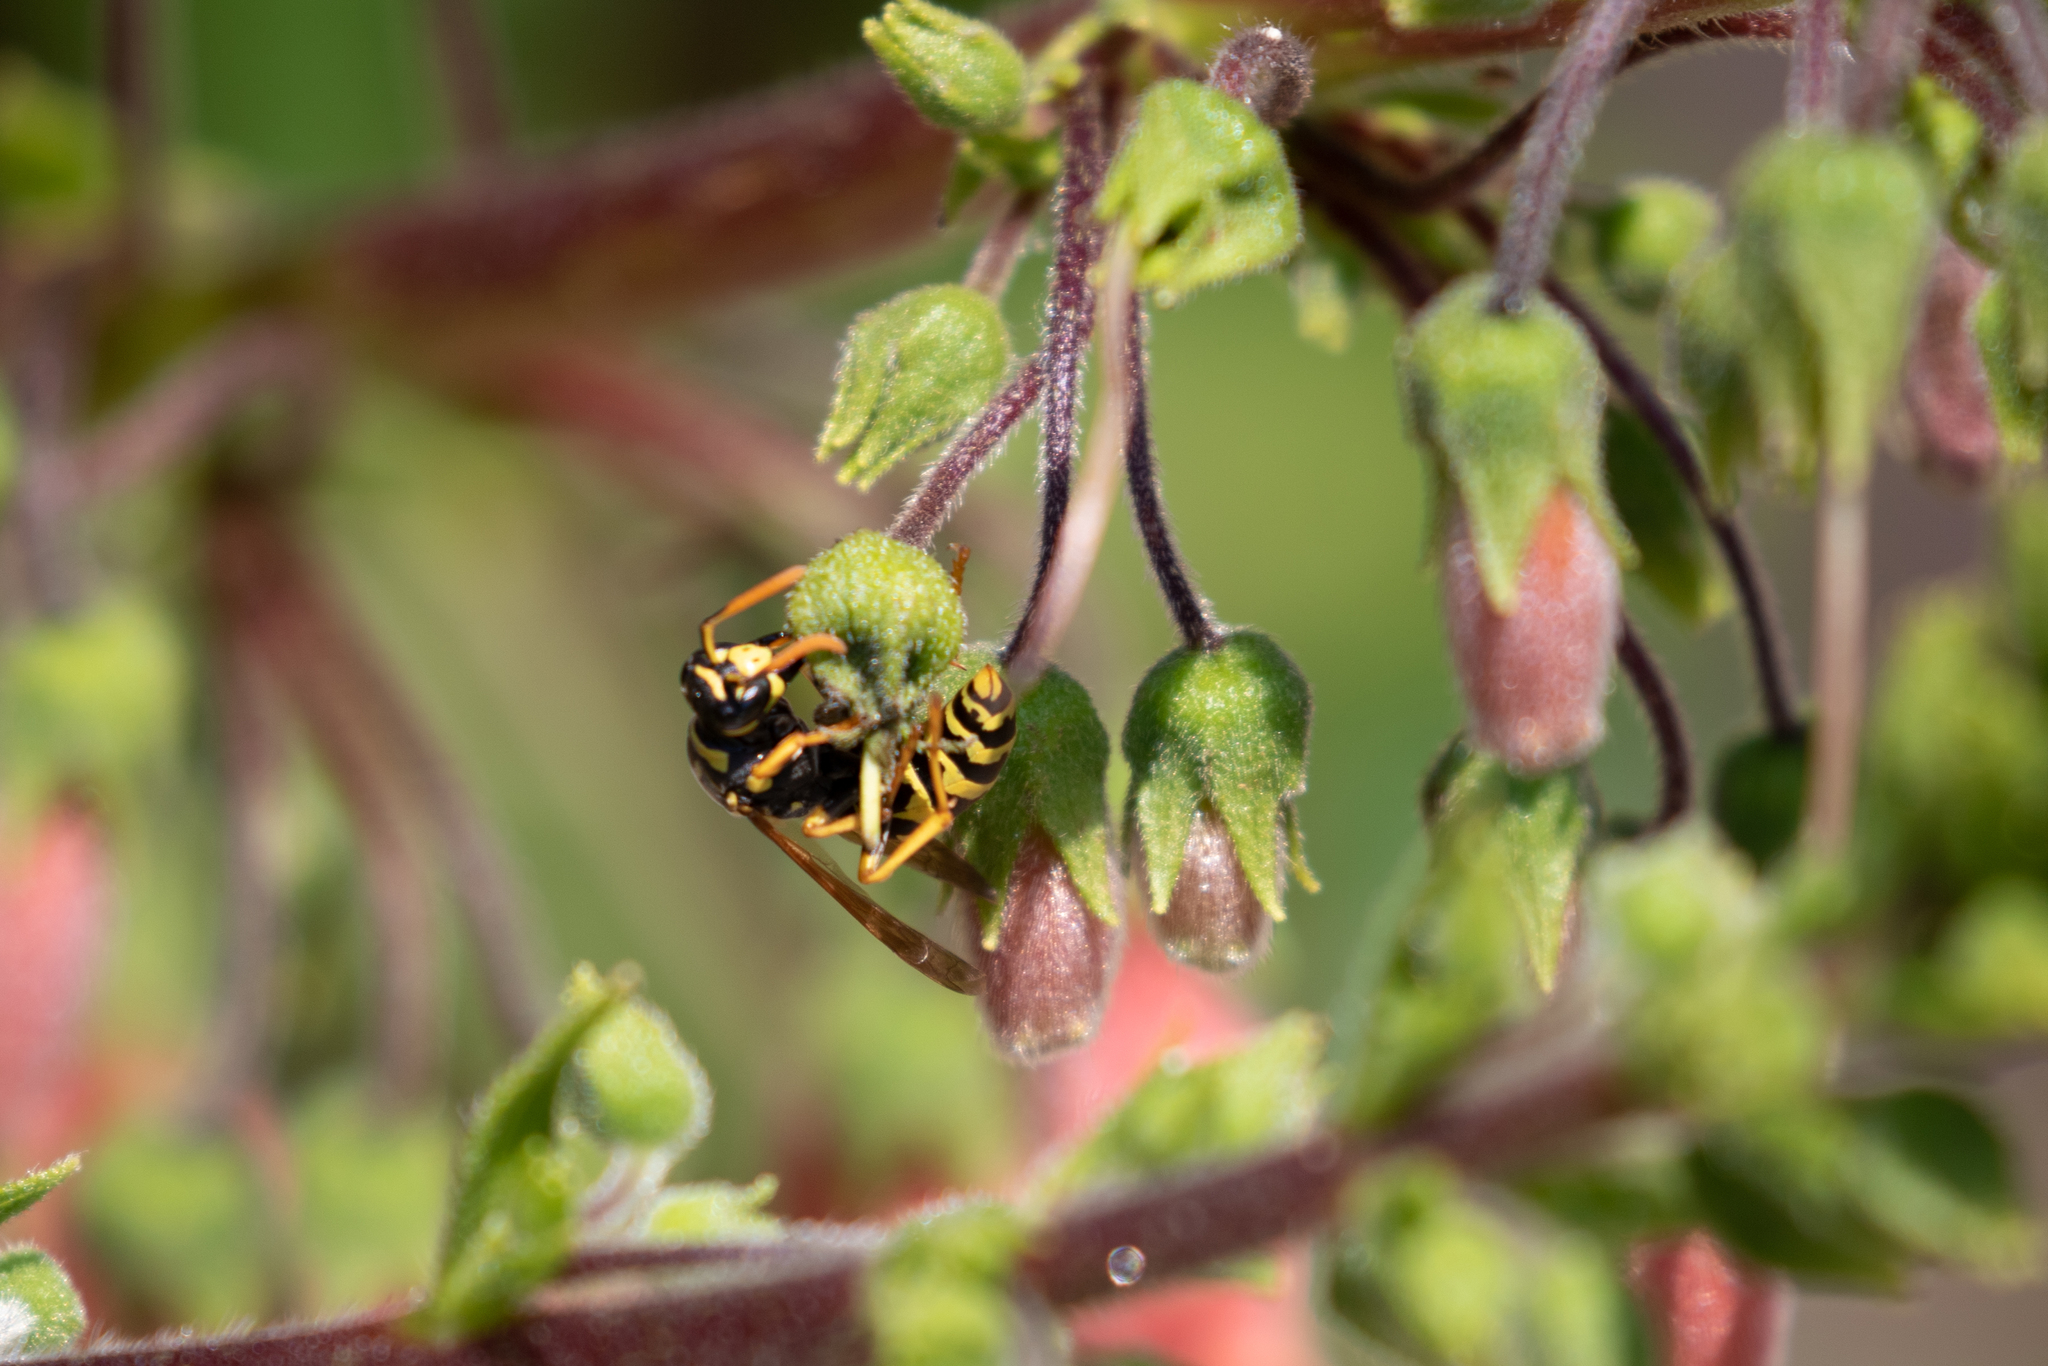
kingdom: Animalia
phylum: Arthropoda
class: Insecta
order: Hymenoptera
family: Eumenidae
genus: Polistes
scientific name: Polistes dominula
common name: Paper wasp
